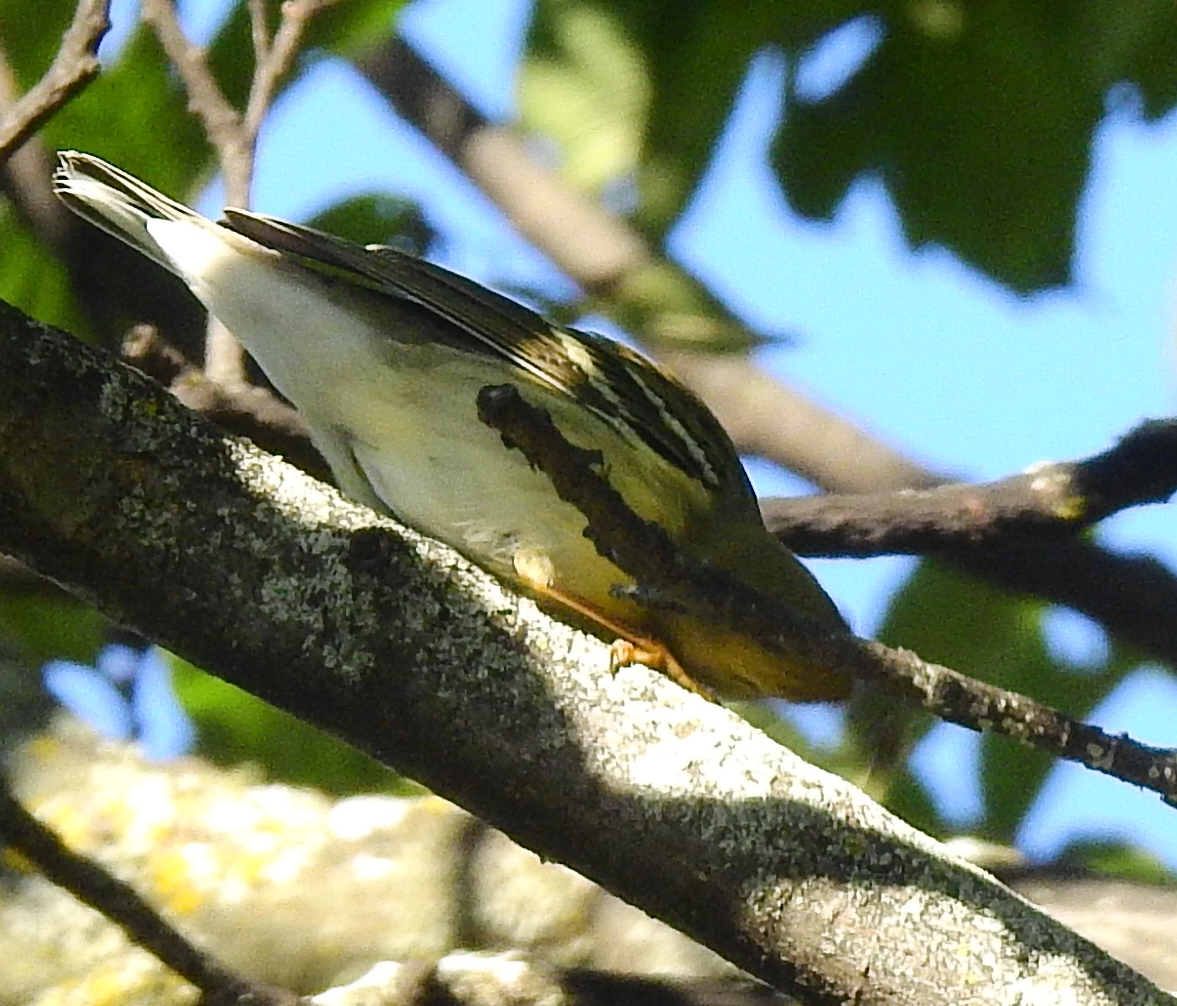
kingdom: Animalia
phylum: Chordata
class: Aves
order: Passeriformes
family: Parulidae
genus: Setophaga
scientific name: Setophaga striata
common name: Blackpoll warbler
